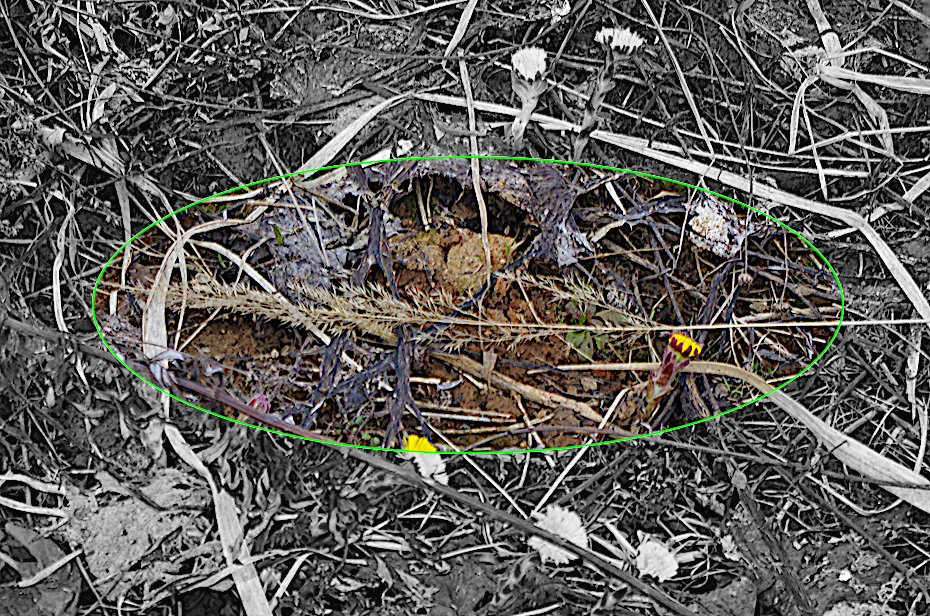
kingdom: Plantae
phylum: Tracheophyta
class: Liliopsida
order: Poales
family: Poaceae
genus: Calamagrostis
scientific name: Calamagrostis epigejos
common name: Wood small-reed
